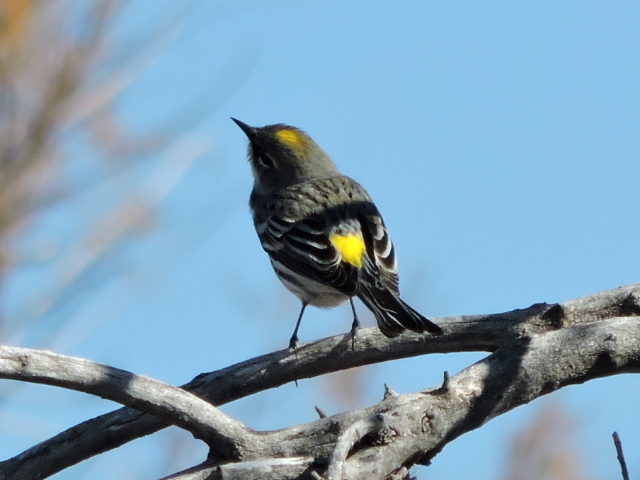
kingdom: Animalia
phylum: Chordata
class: Aves
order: Passeriformes
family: Parulidae
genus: Setophaga
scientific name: Setophaga coronata
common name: Myrtle warbler
